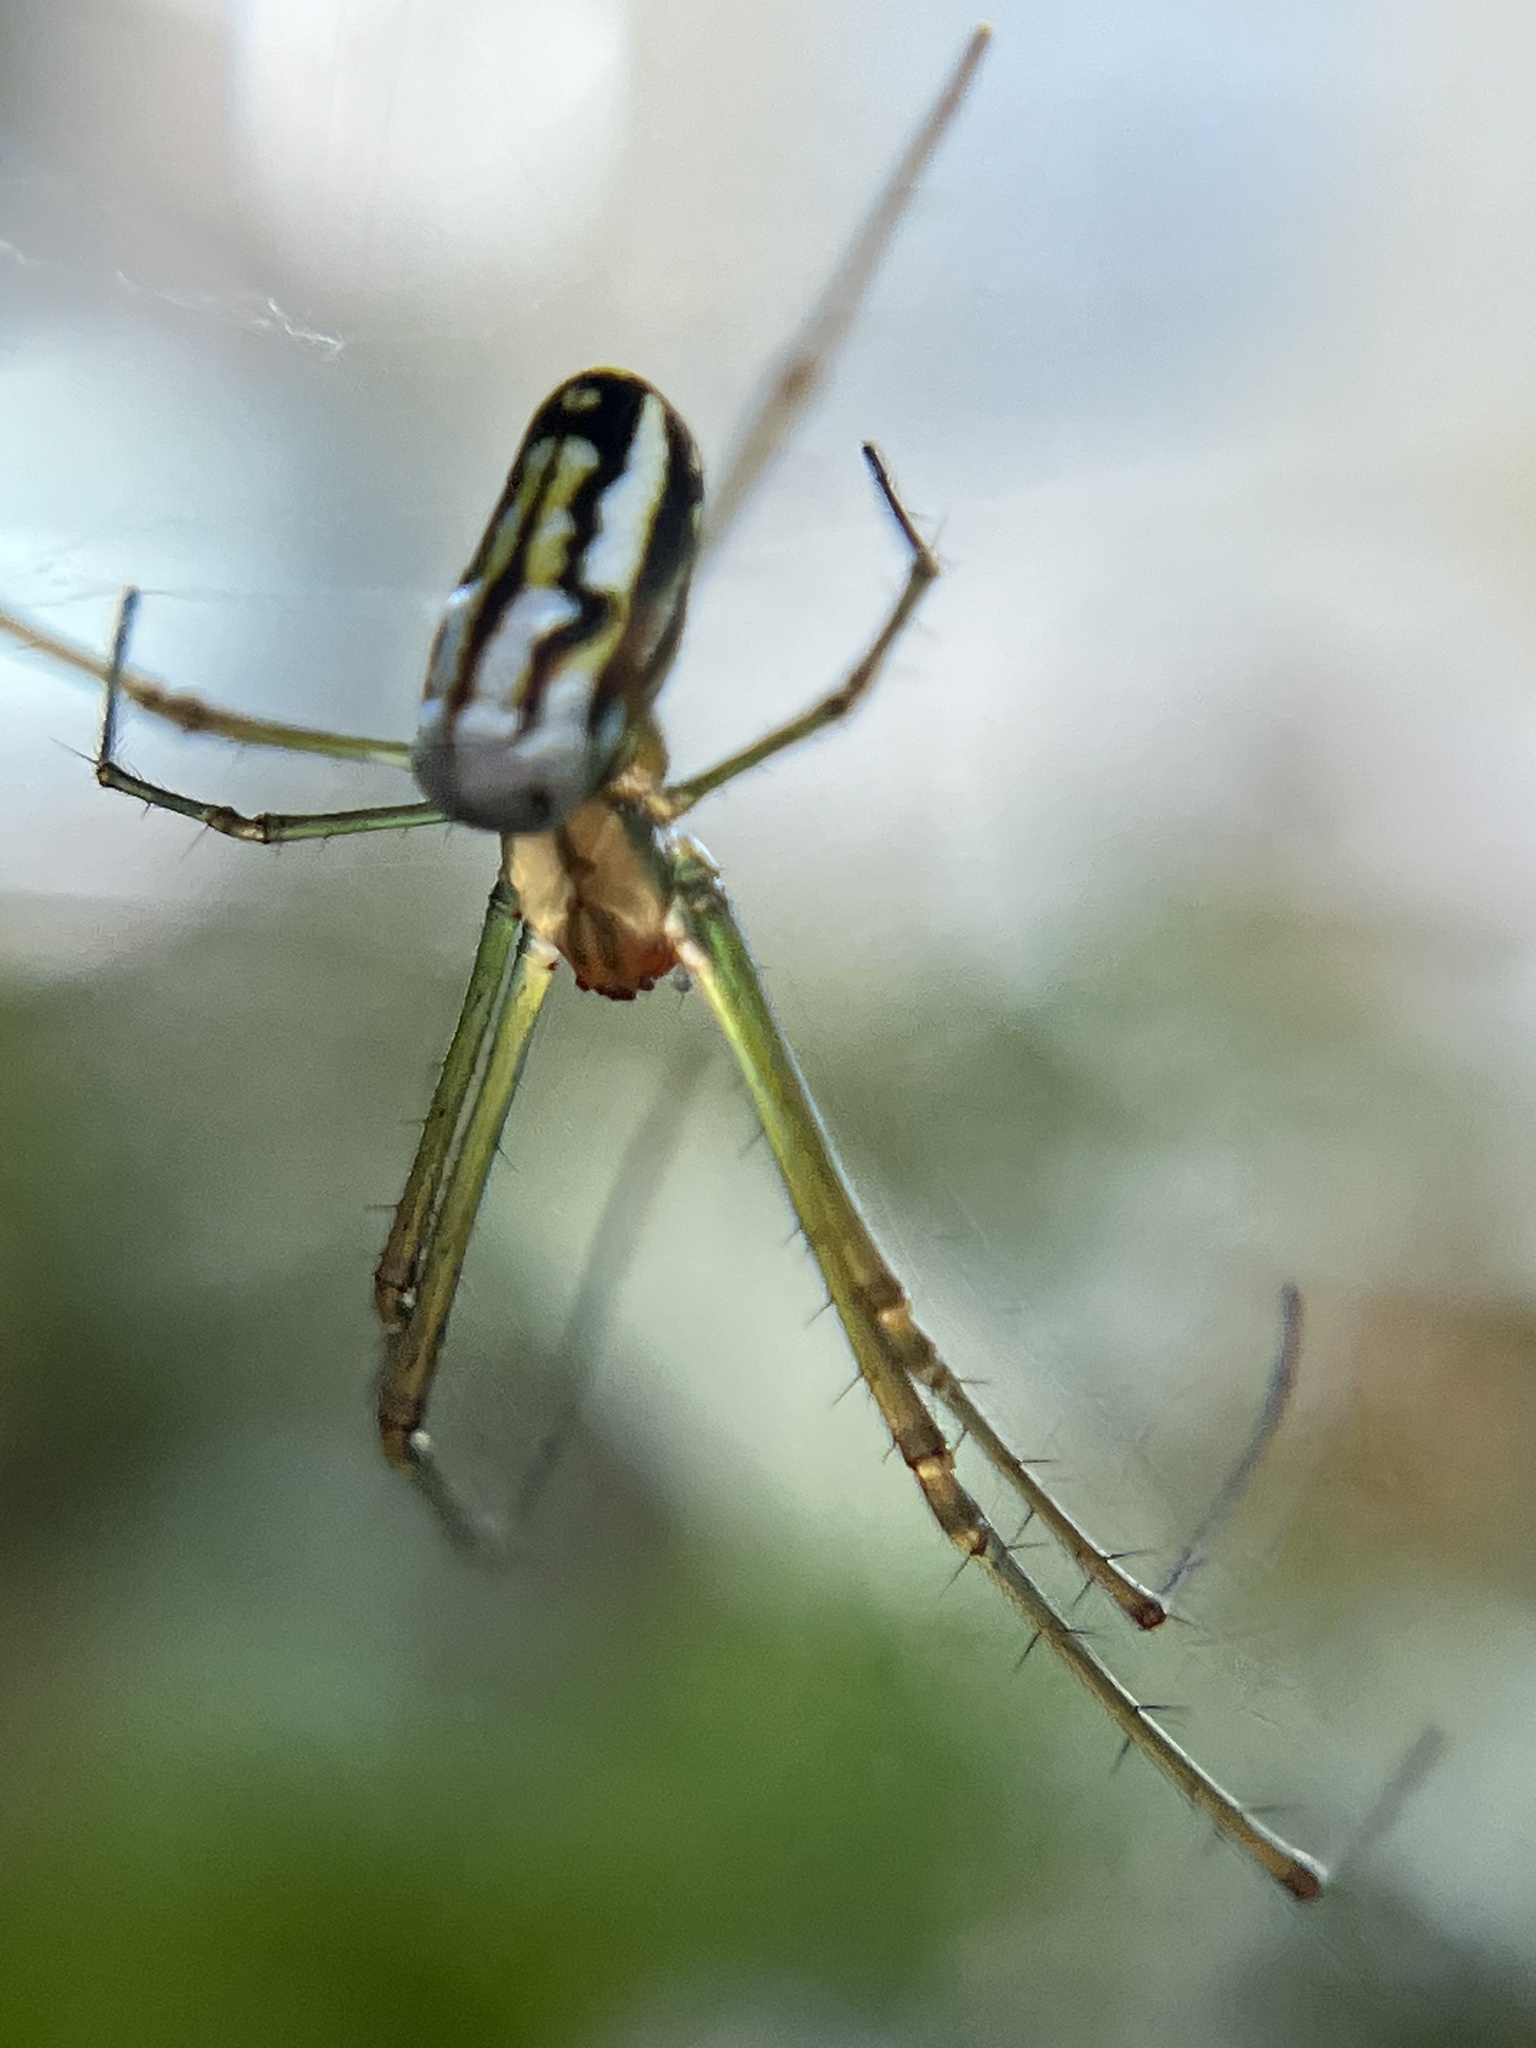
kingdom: Animalia
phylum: Arthropoda
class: Arachnida
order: Araneae
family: Tetragnathidae
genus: Leucauge
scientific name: Leucauge argyra
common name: Longjawed orb weavers
